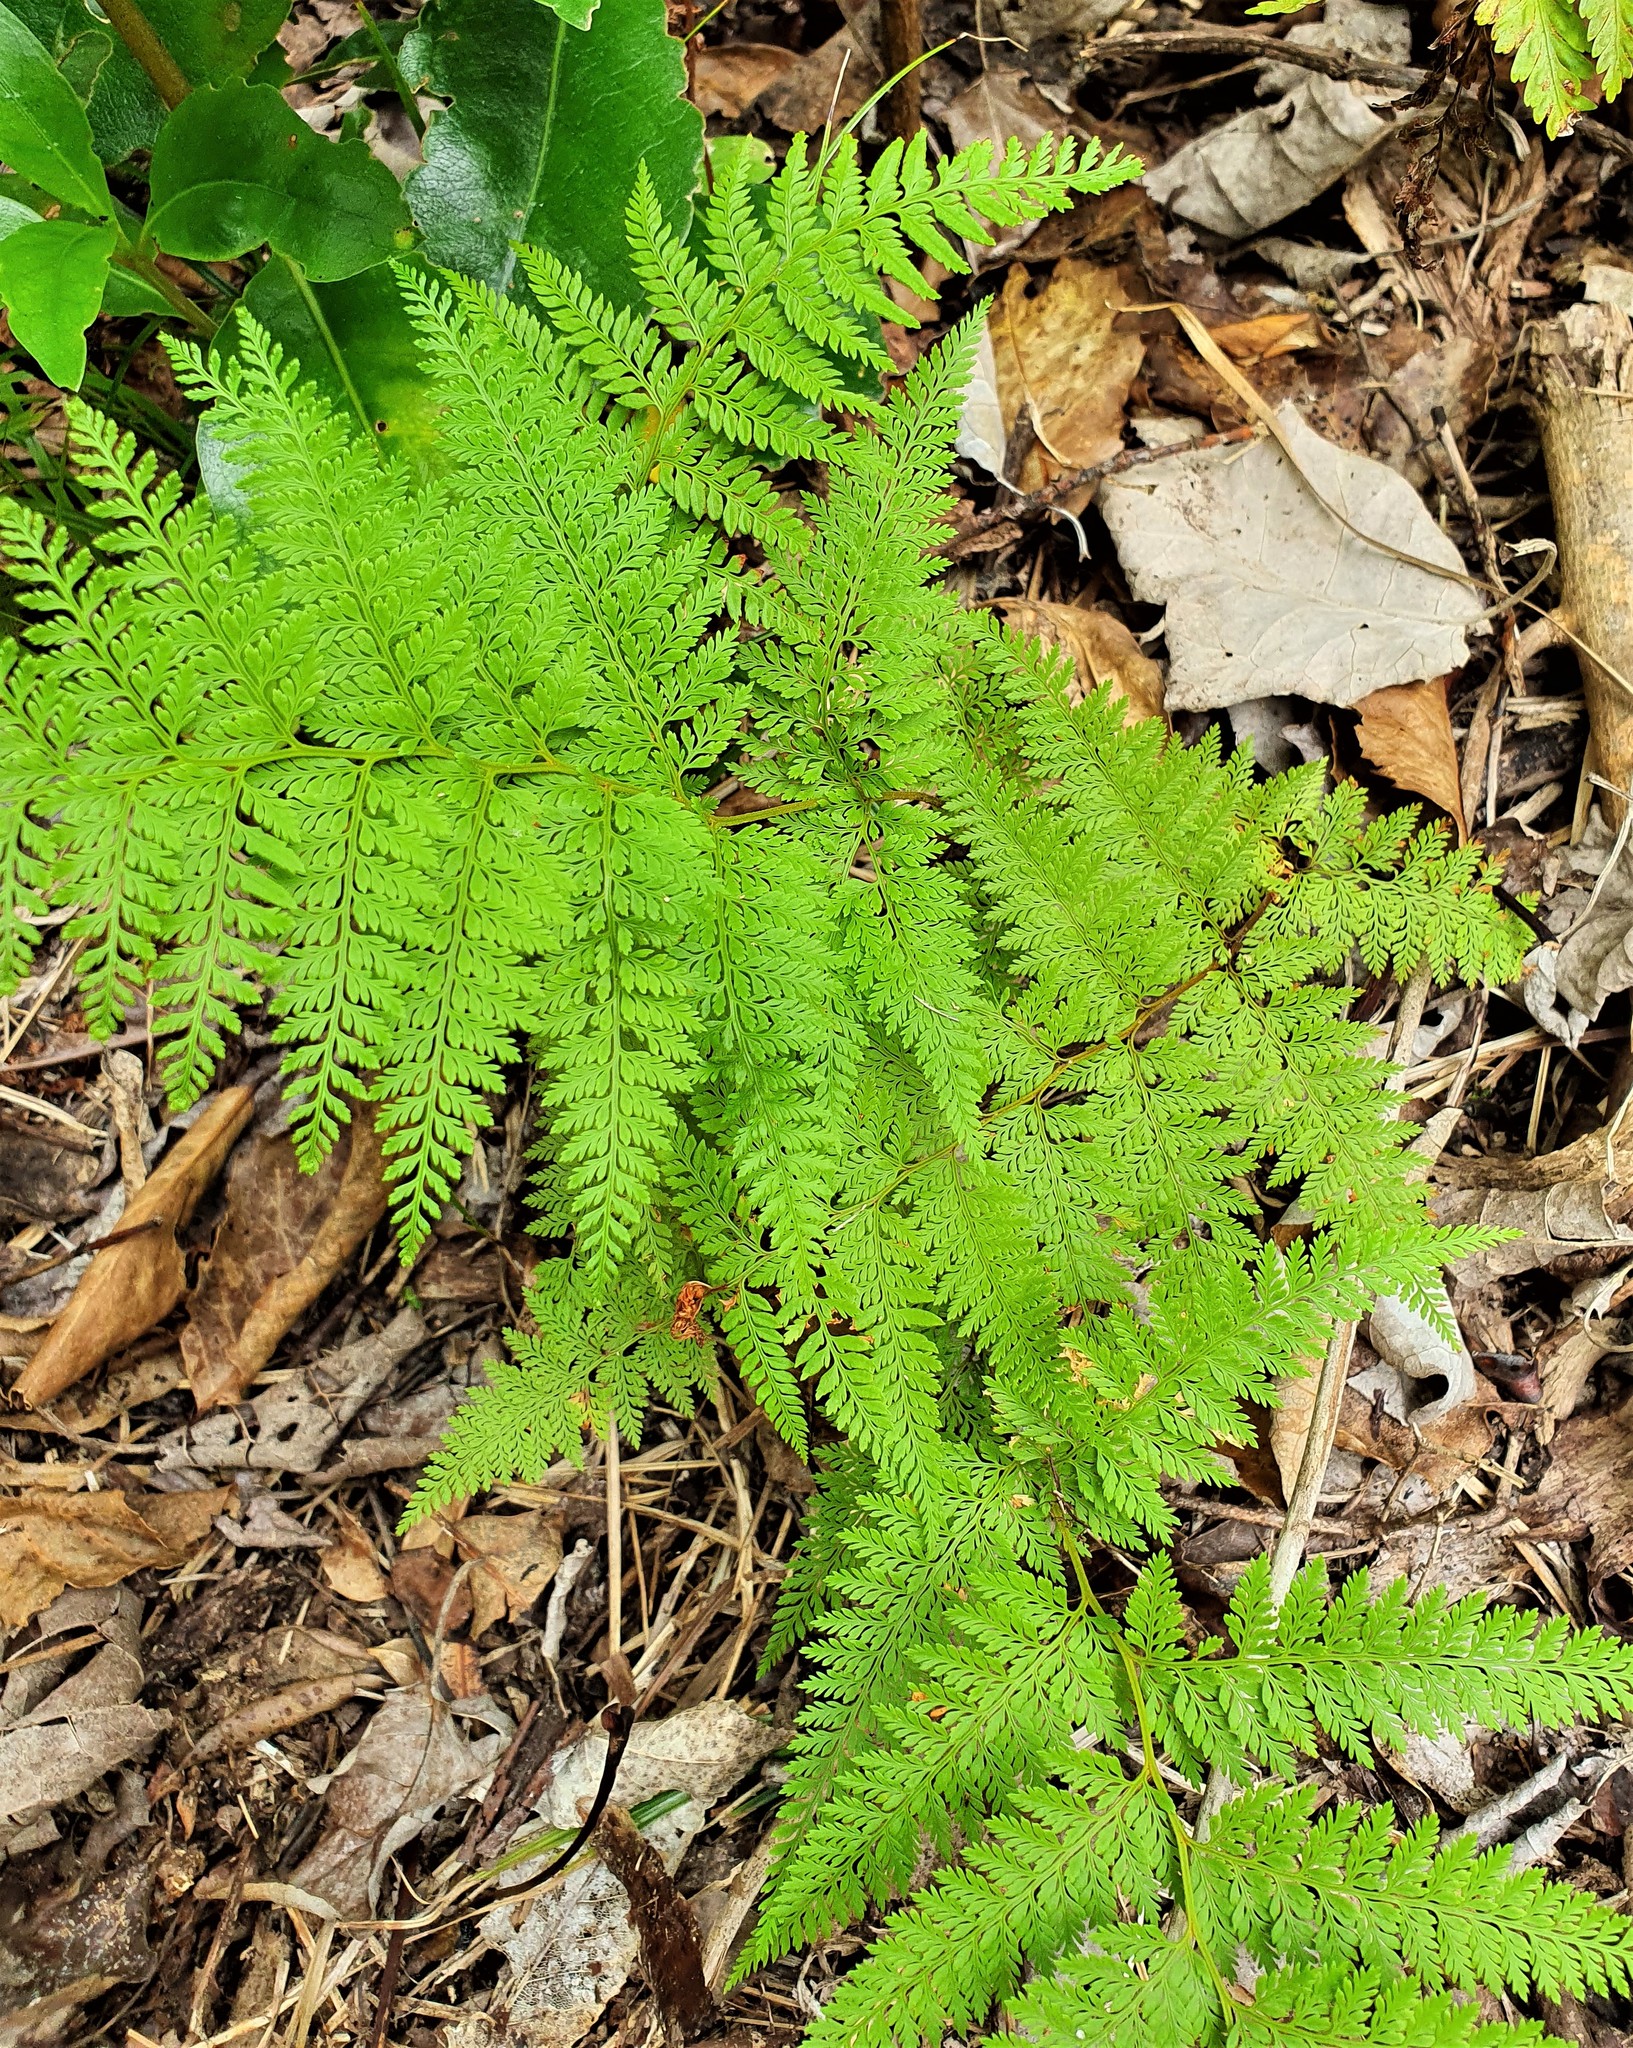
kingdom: Plantae
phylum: Tracheophyta
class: Polypodiopsida
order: Polypodiales
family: Dennstaedtiaceae
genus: Paesia
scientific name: Paesia scaberula
